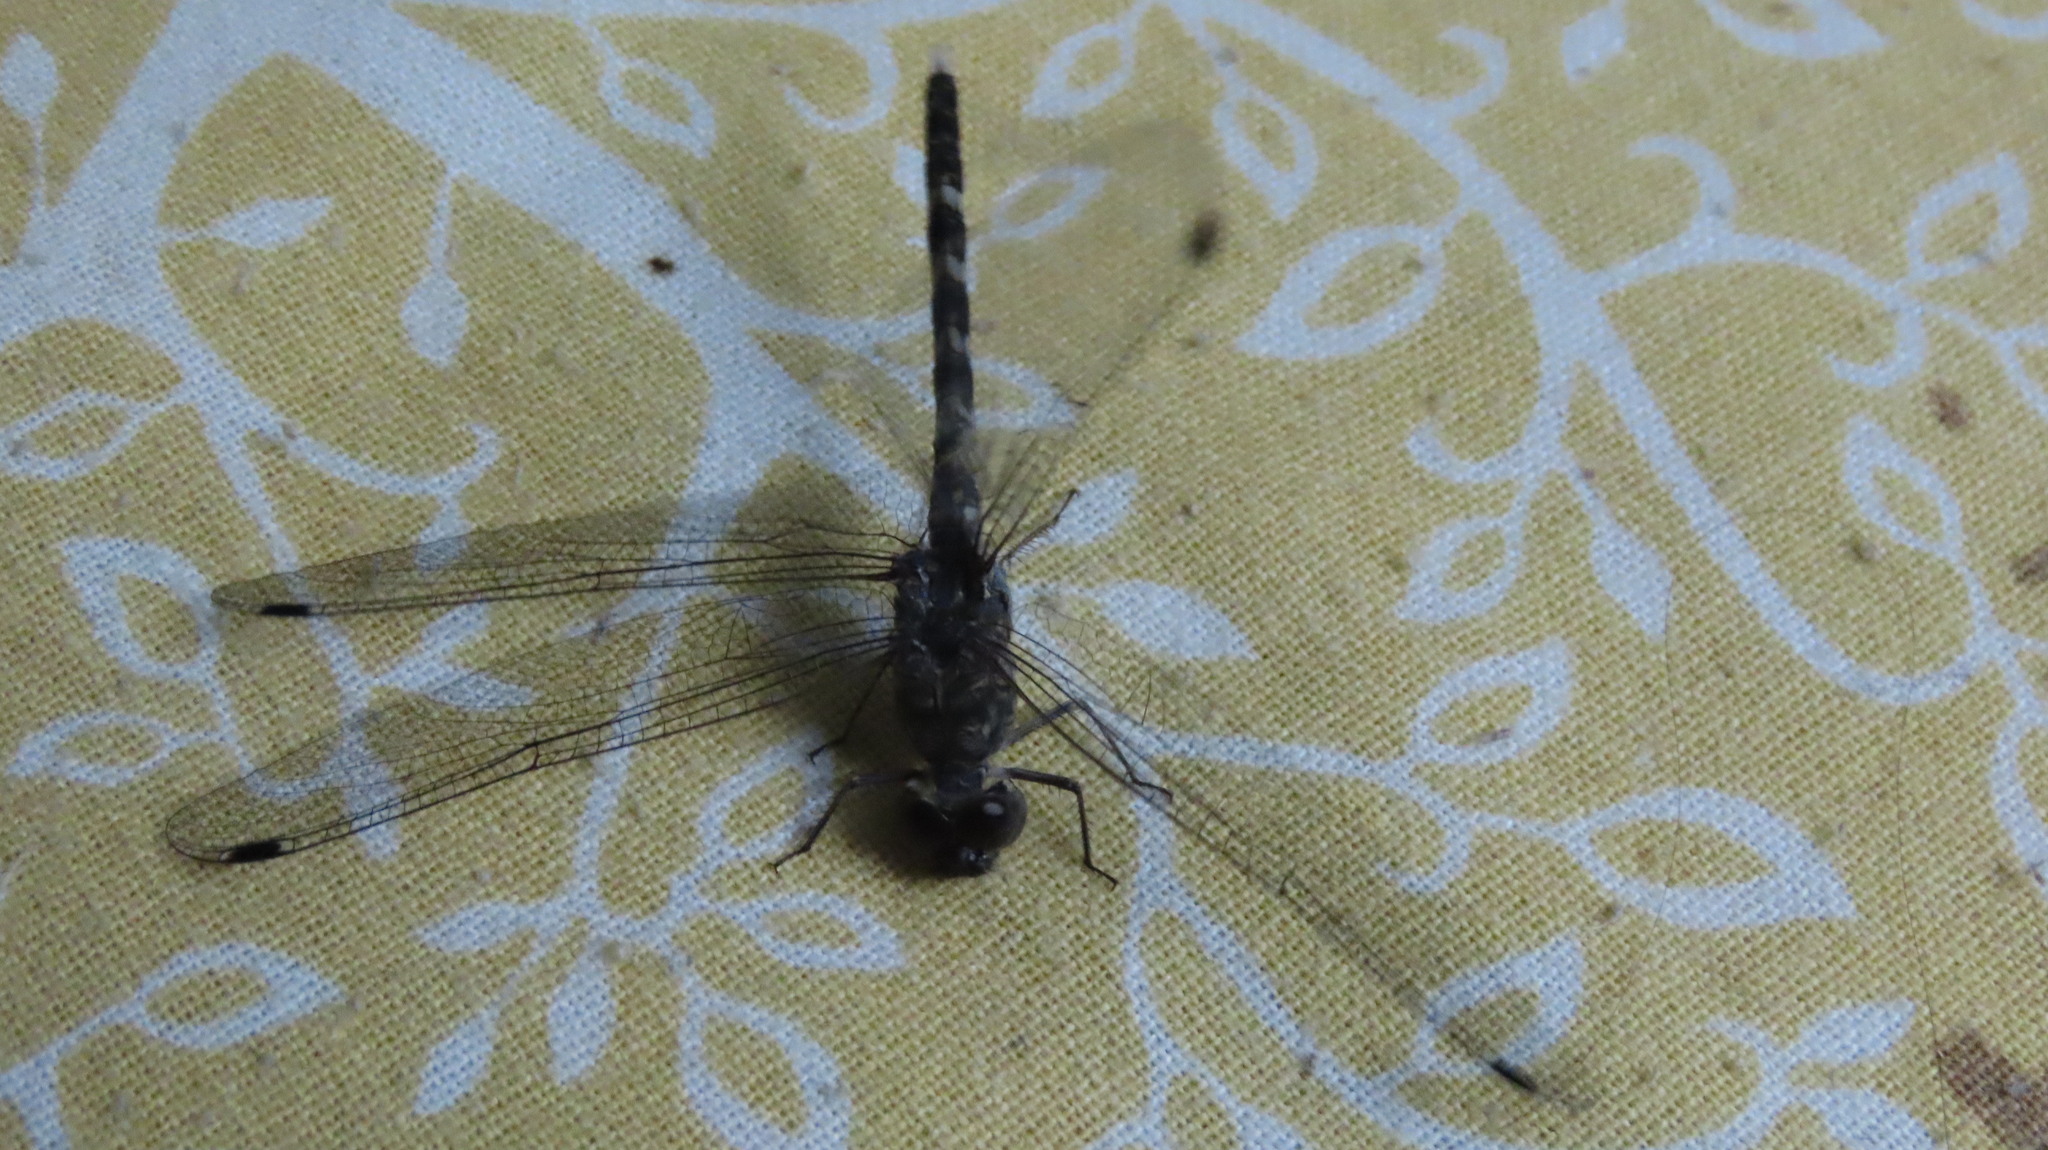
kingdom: Animalia
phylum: Arthropoda
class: Insecta
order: Odonata
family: Libellulidae
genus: Bradinopyga
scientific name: Bradinopyga geminata
